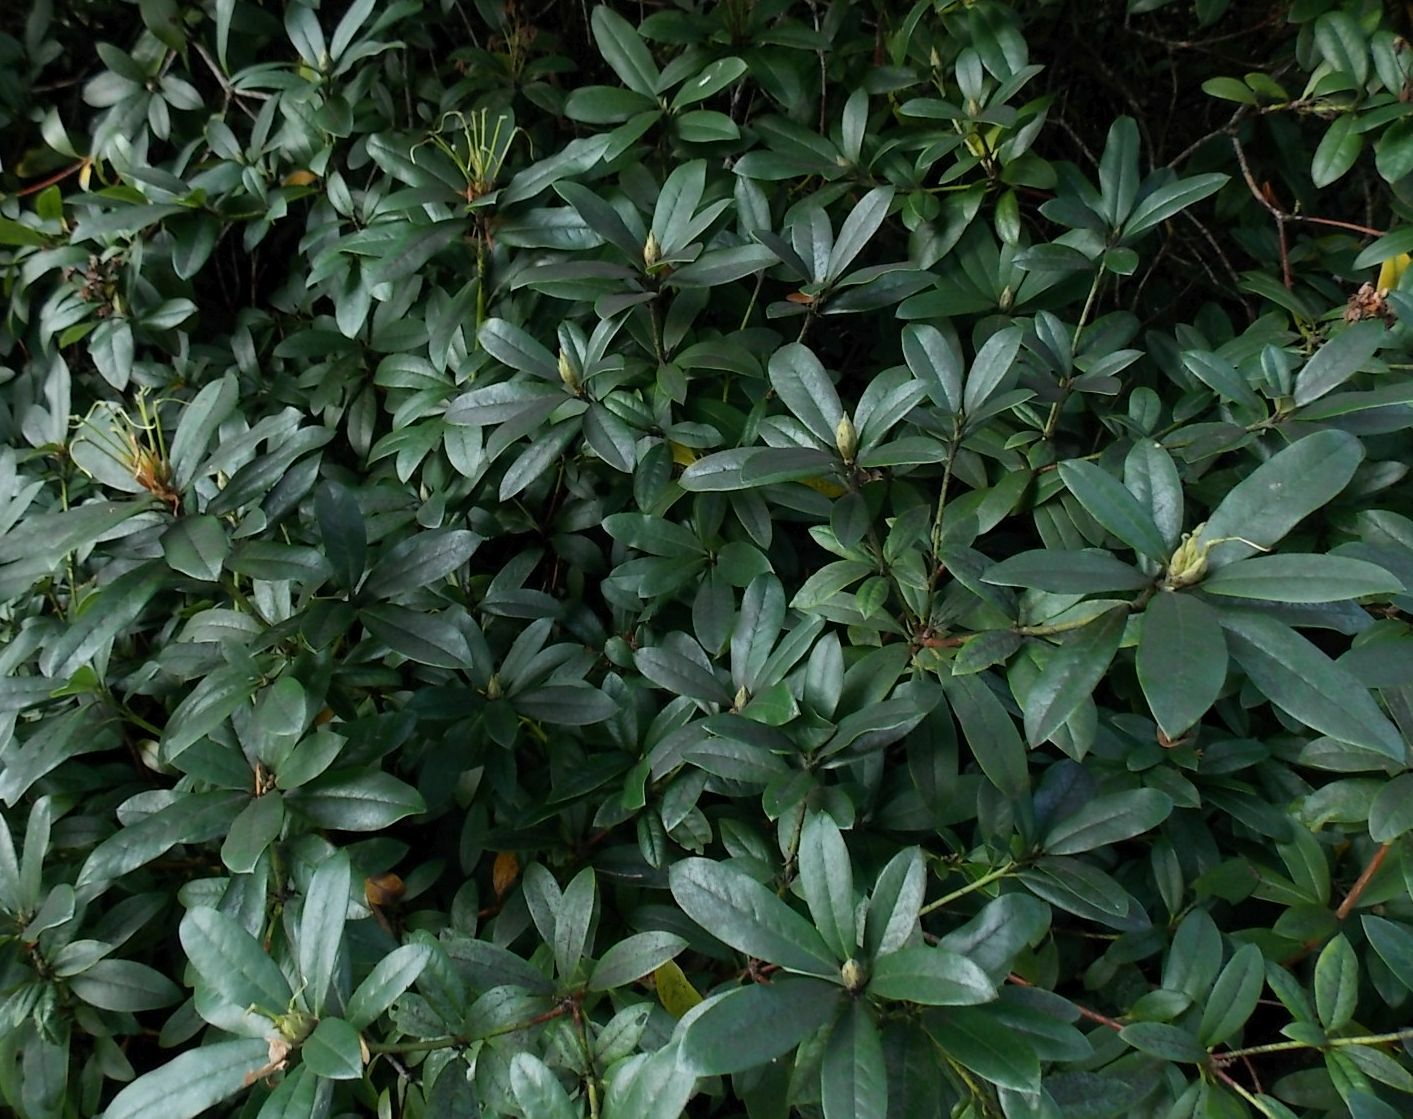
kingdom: Plantae
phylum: Tracheophyta
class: Magnoliopsida
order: Ericales
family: Ericaceae
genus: Rhododendron
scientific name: Rhododendron ponticum
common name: Rhododendron
